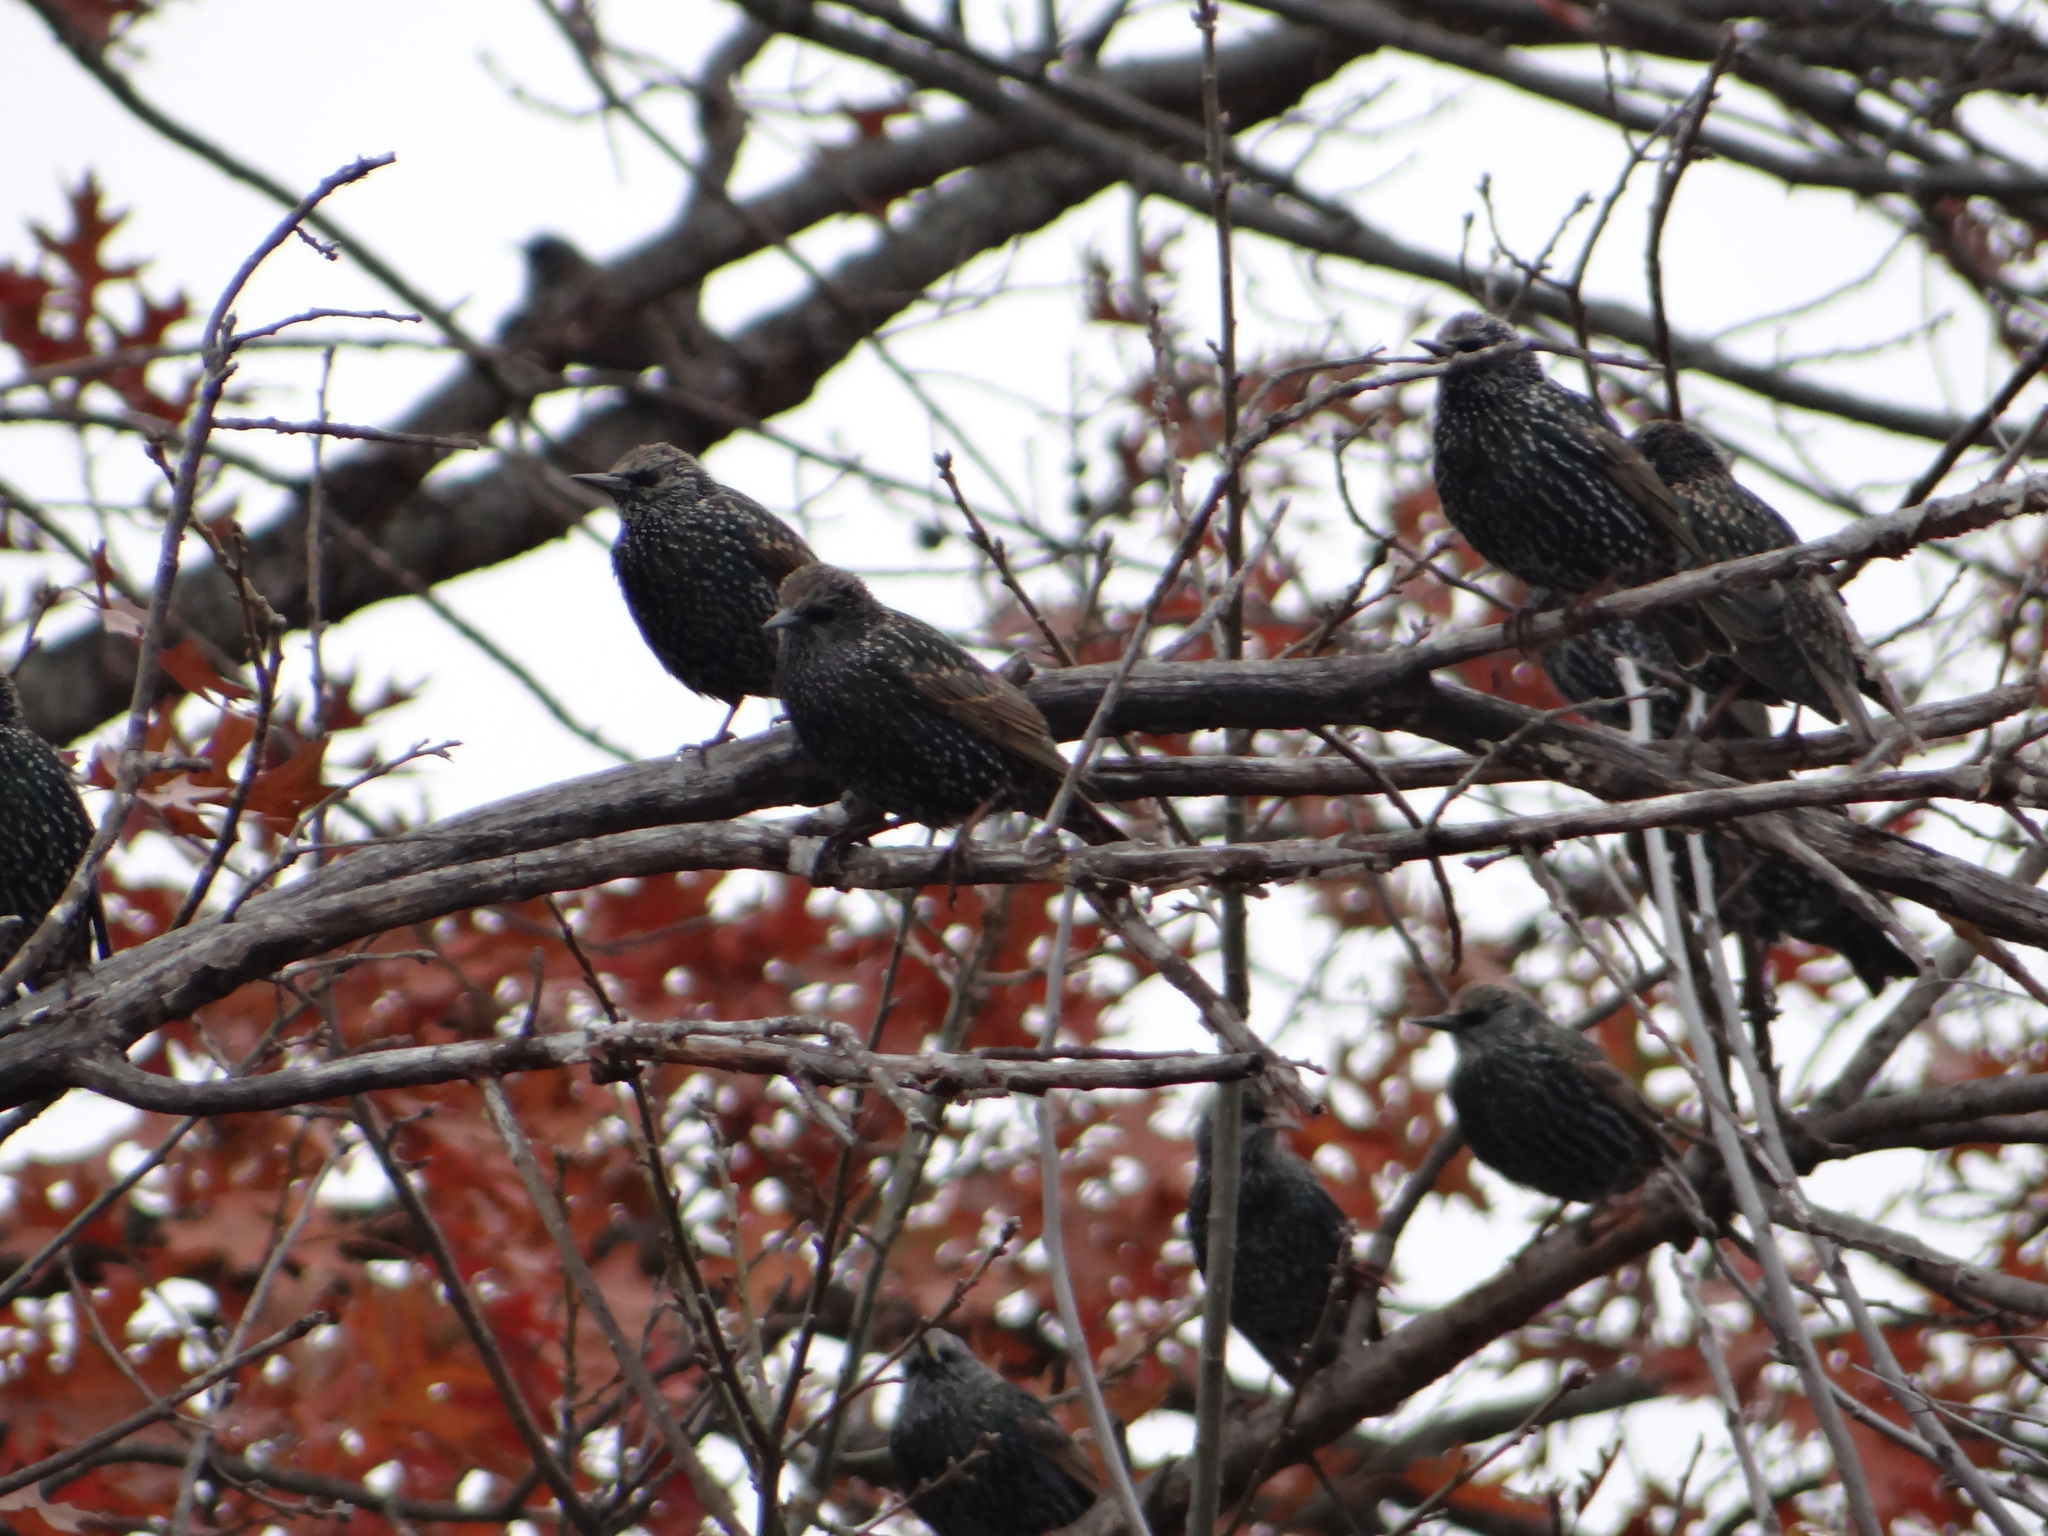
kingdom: Animalia
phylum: Chordata
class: Aves
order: Passeriformes
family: Sturnidae
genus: Sturnus
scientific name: Sturnus vulgaris
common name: Common starling
